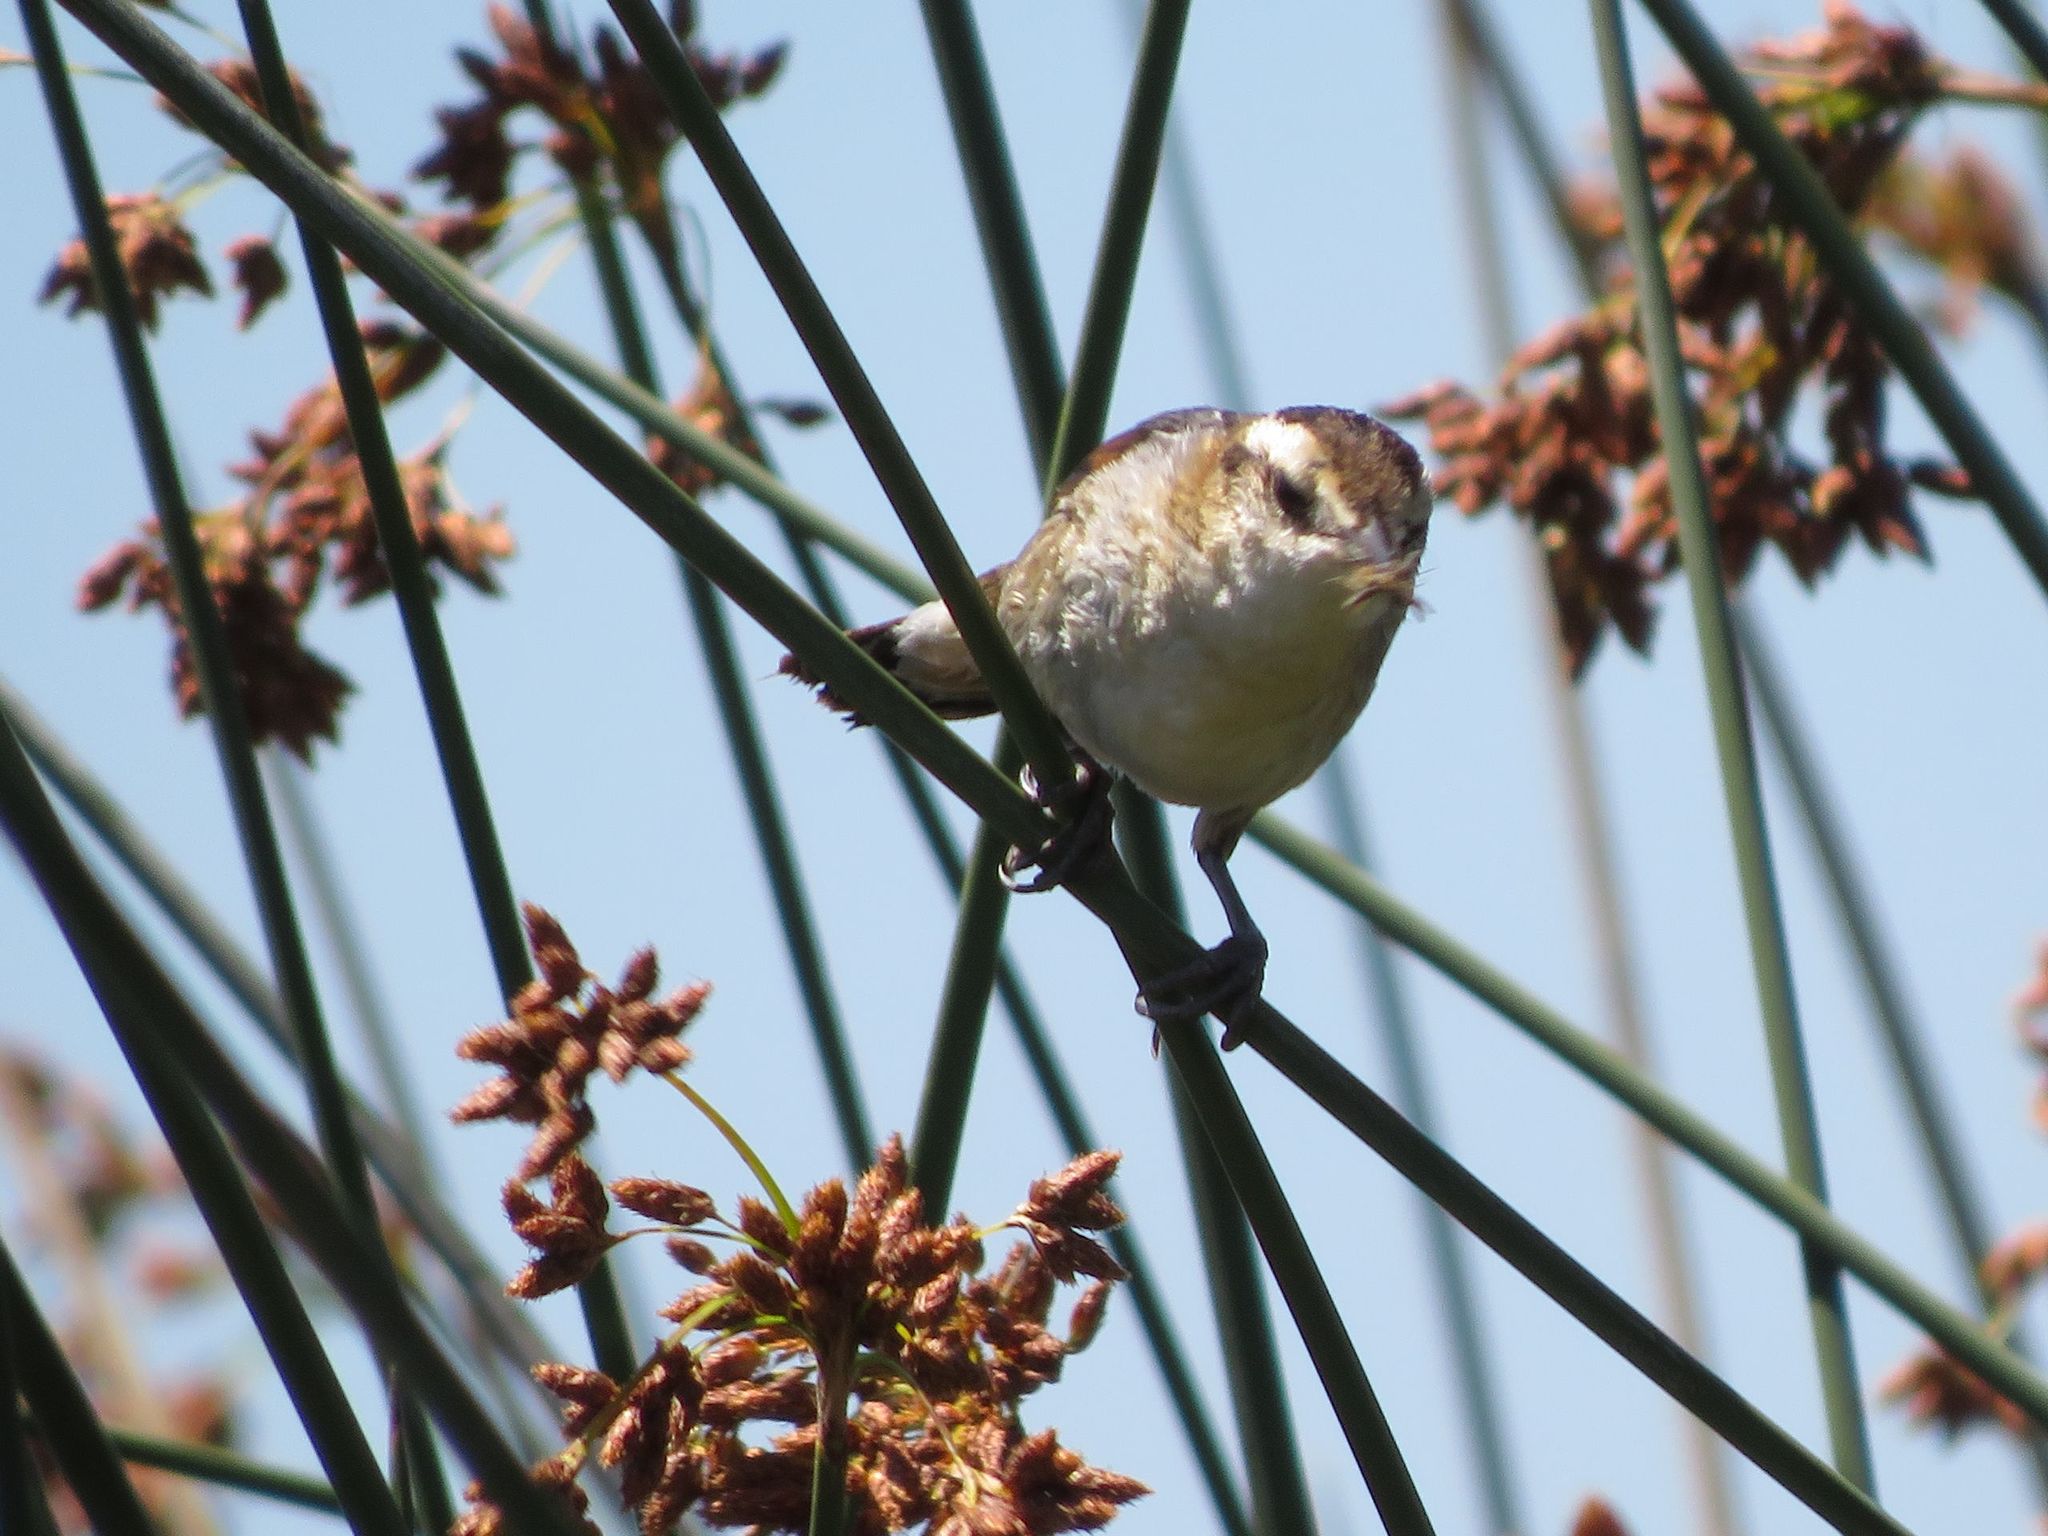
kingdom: Animalia
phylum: Chordata
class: Aves
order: Passeriformes
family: Furnariidae
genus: Phleocryptes
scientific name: Phleocryptes melanops
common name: Wren-like rushbird
